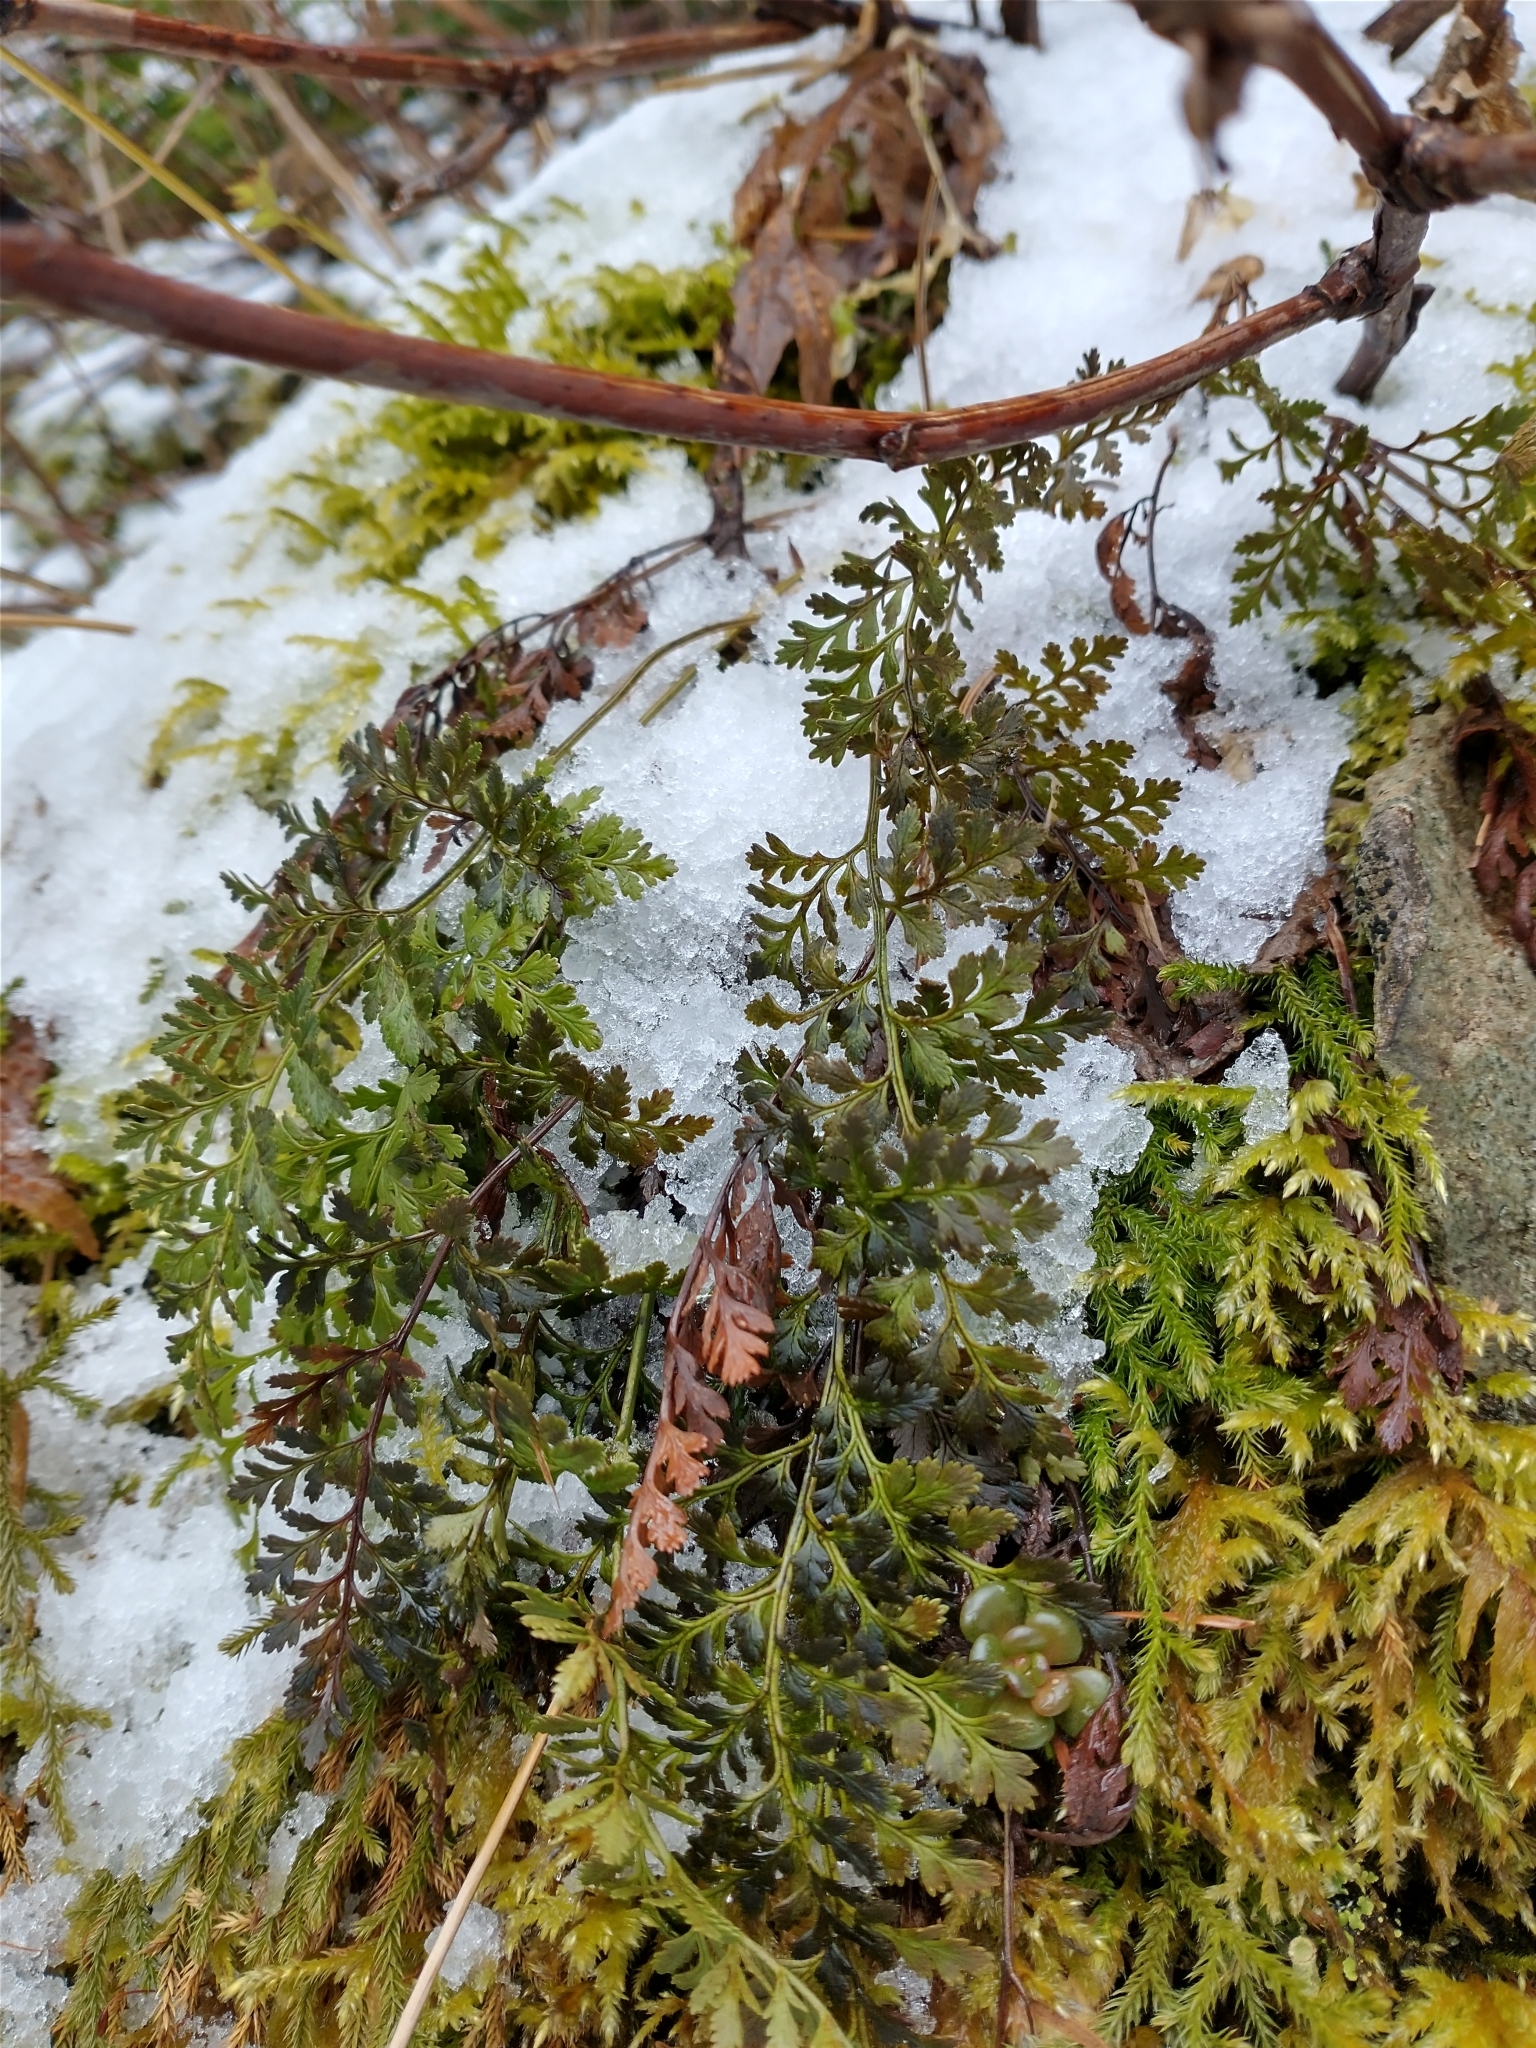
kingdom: Plantae
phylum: Tracheophyta
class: Polypodiopsida
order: Polypodiales
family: Pteridaceae
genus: Cryptogramma
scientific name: Cryptogramma acrostichoides
